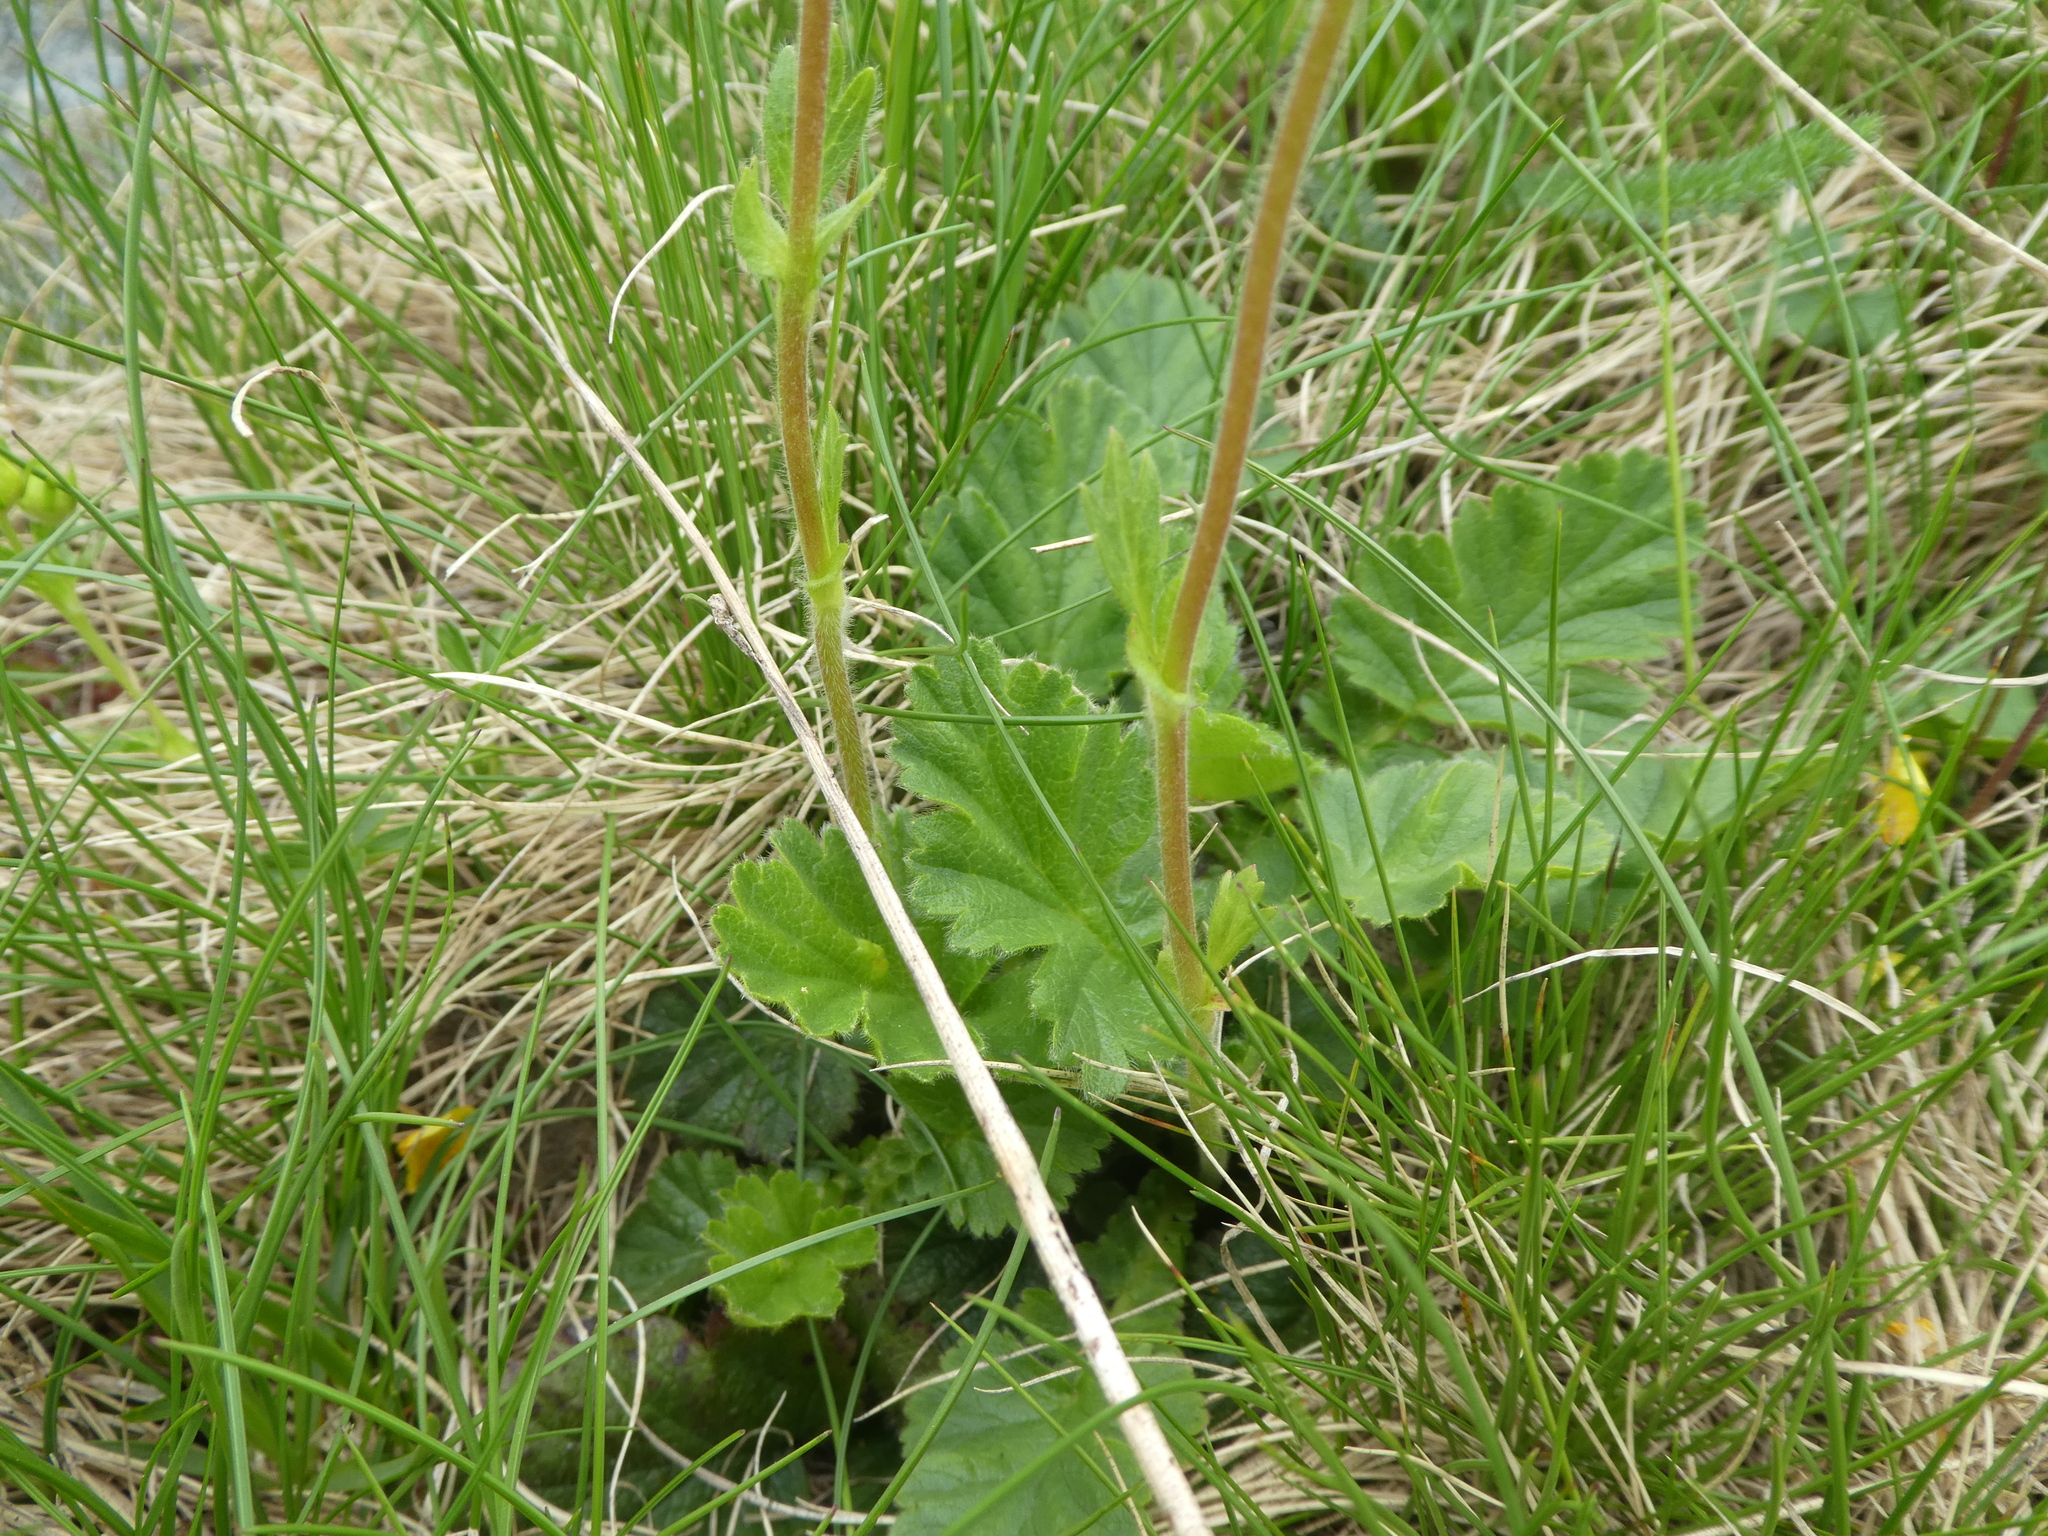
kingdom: Plantae
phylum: Tracheophyta
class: Magnoliopsida
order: Rosales
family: Rosaceae
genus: Geum
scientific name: Geum montanum
